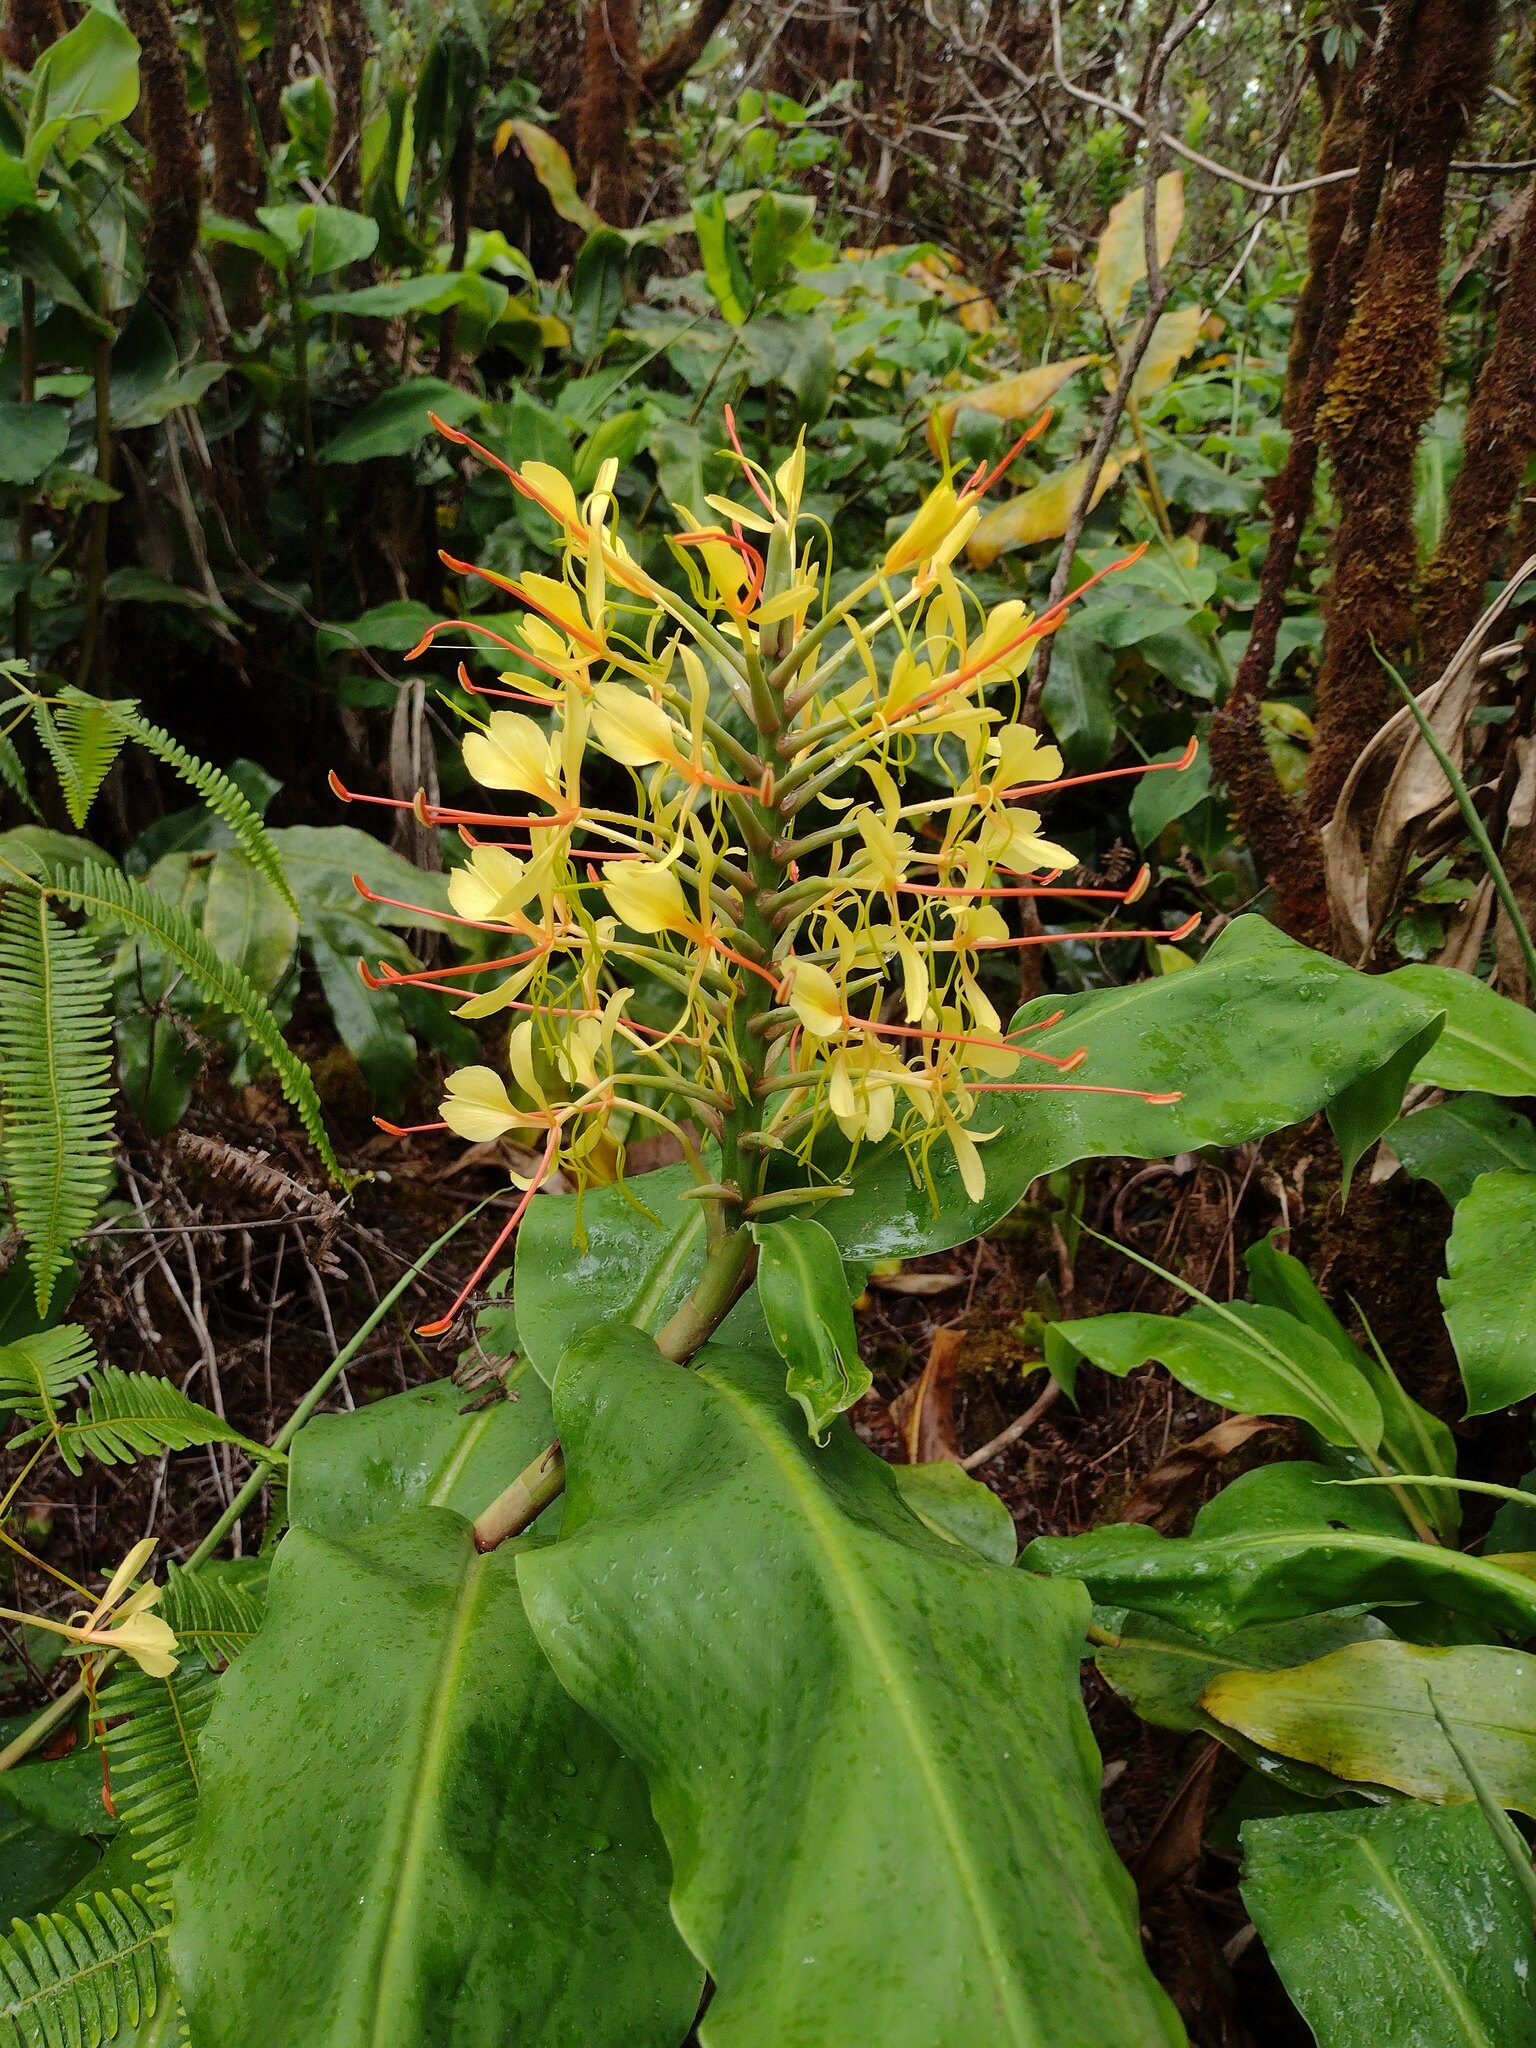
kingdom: Plantae
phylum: Tracheophyta
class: Liliopsida
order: Zingiberales
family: Zingiberaceae
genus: Hedychium
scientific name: Hedychium gardnerianum
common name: Himalayan ginger
